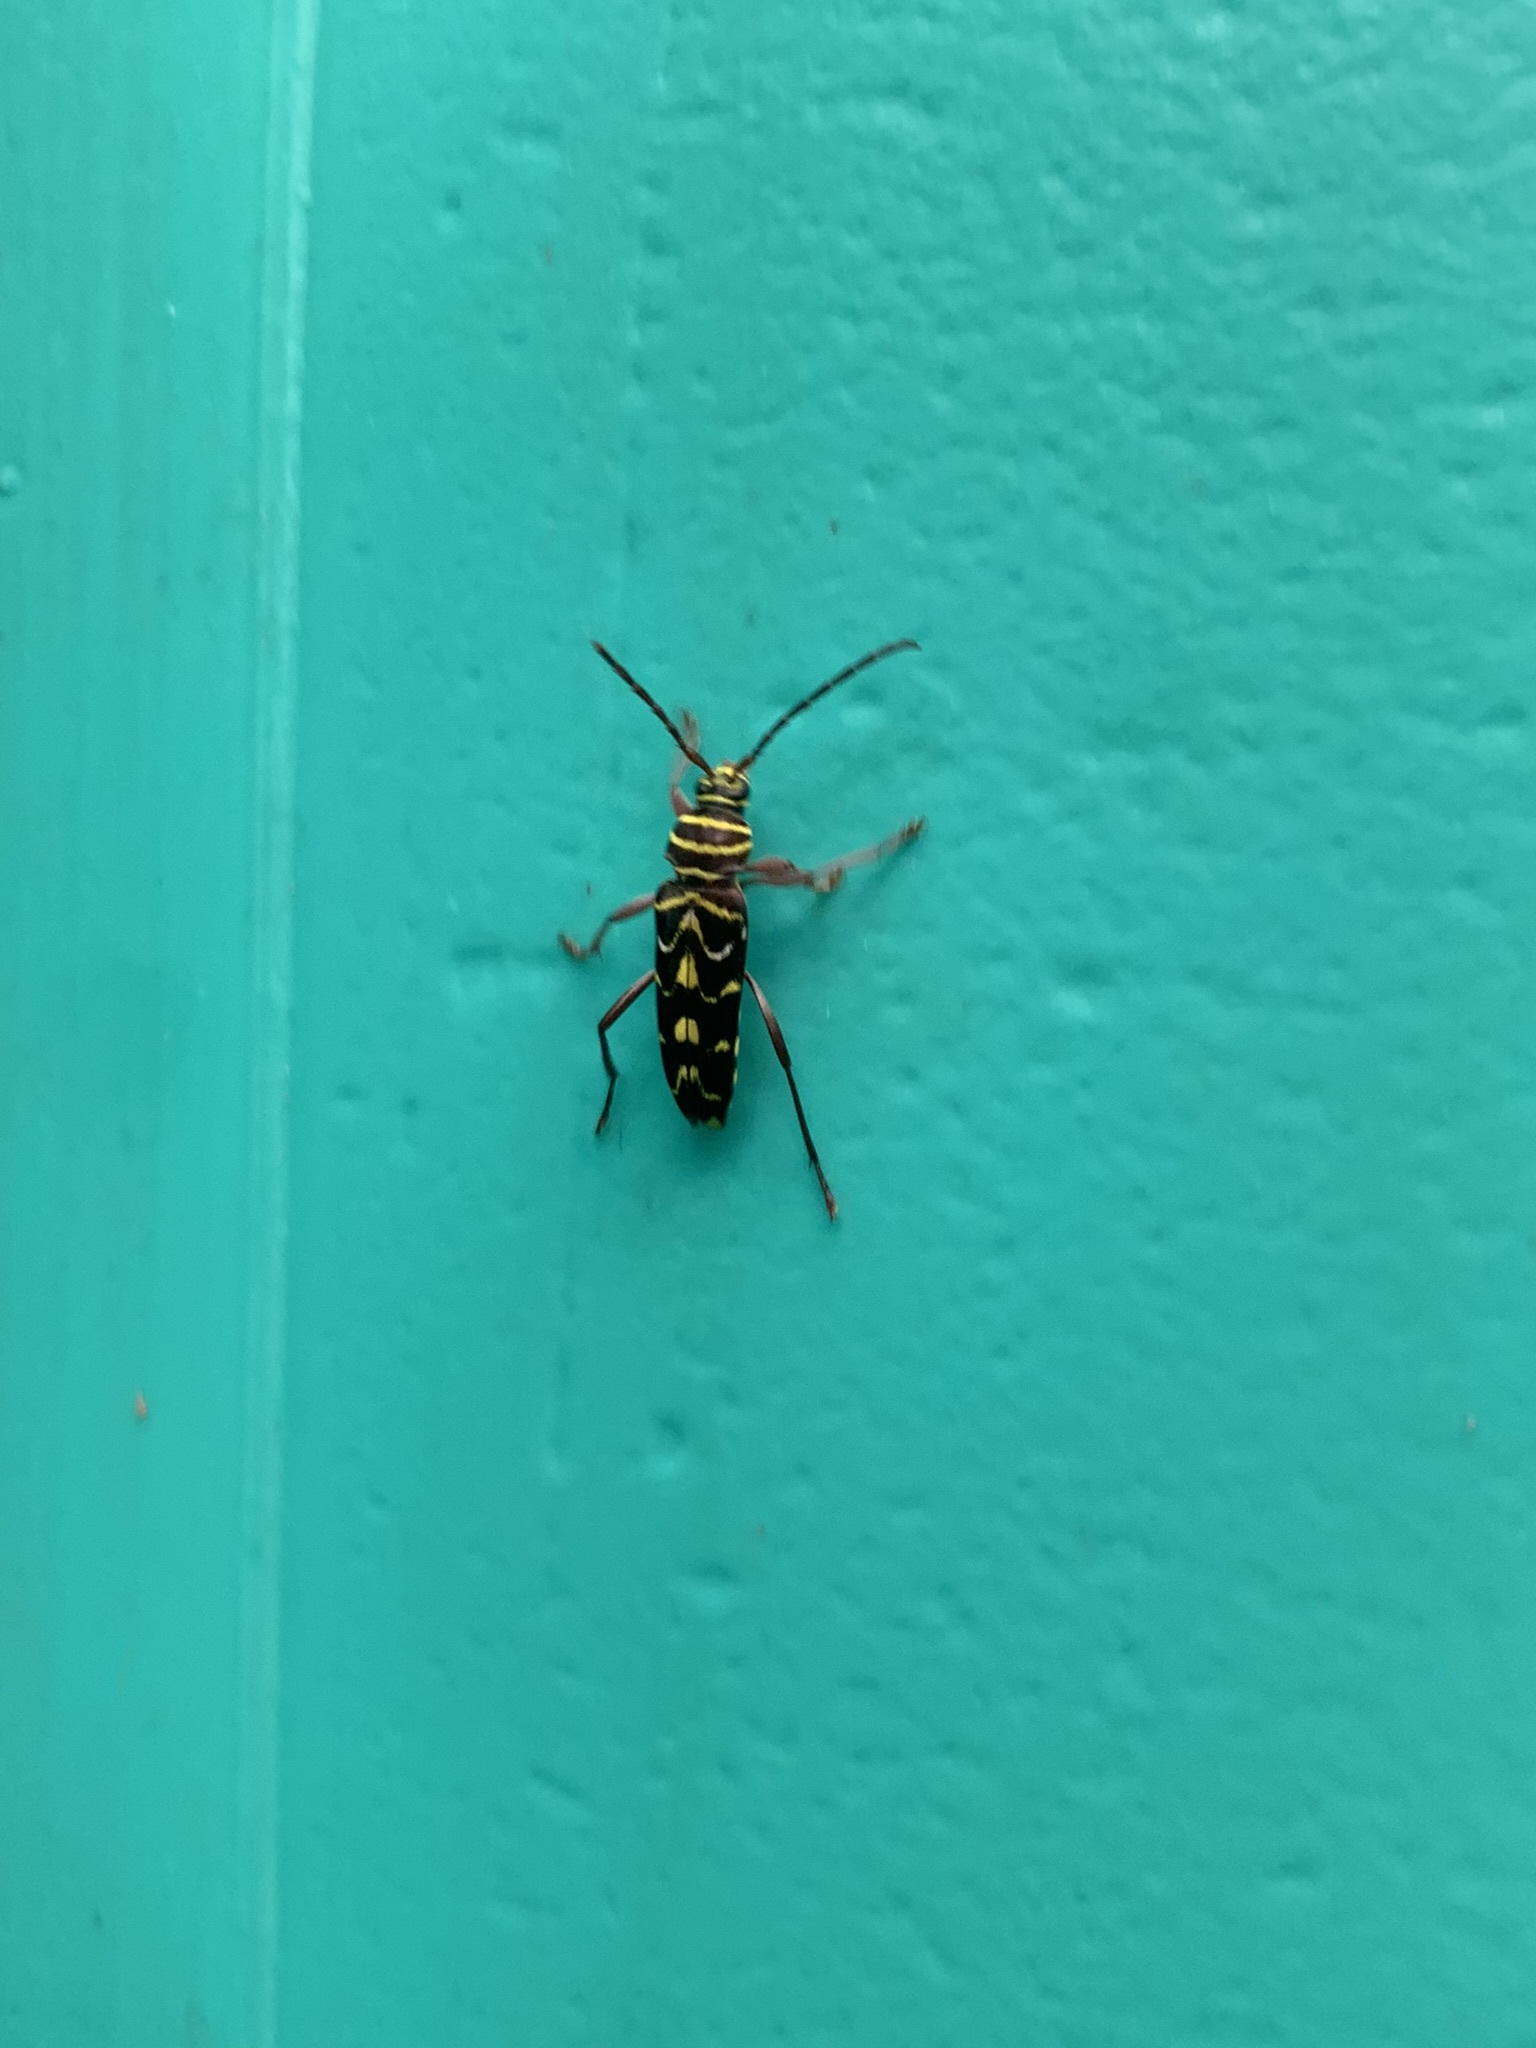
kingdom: Animalia
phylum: Arthropoda
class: Insecta
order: Coleoptera
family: Cerambycidae
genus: Megacyllene
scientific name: Megacyllene acuta
